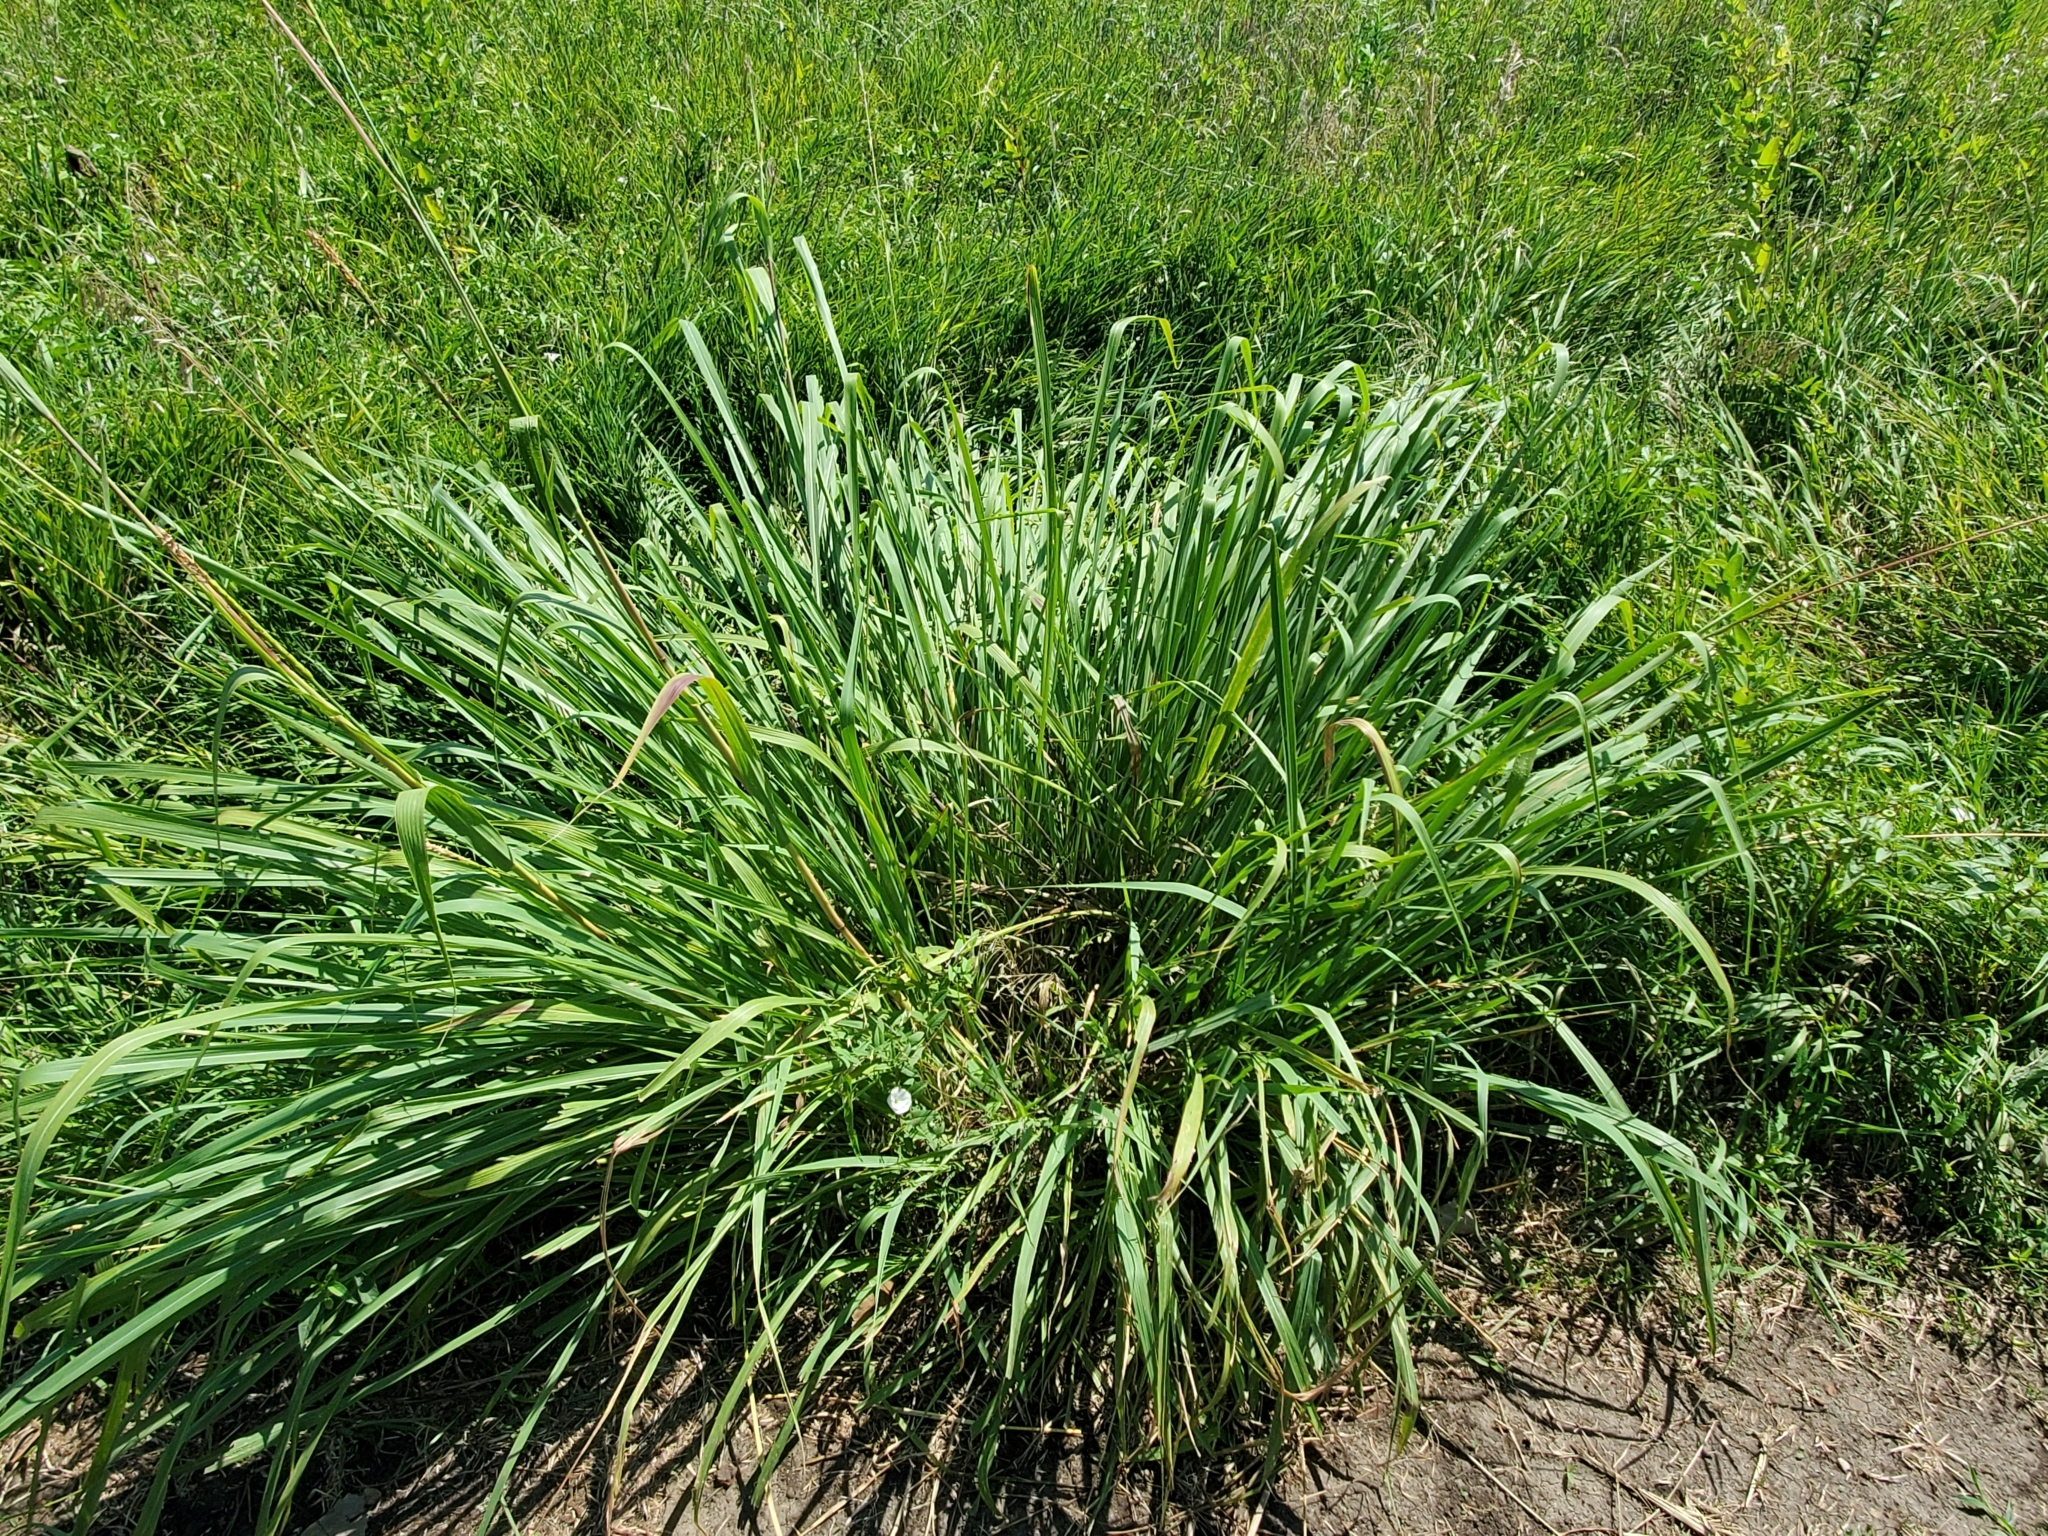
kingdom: Plantae
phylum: Tracheophyta
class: Liliopsida
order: Poales
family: Poaceae
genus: Tripsacum
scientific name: Tripsacum dactyloides
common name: Buffalo-grass
